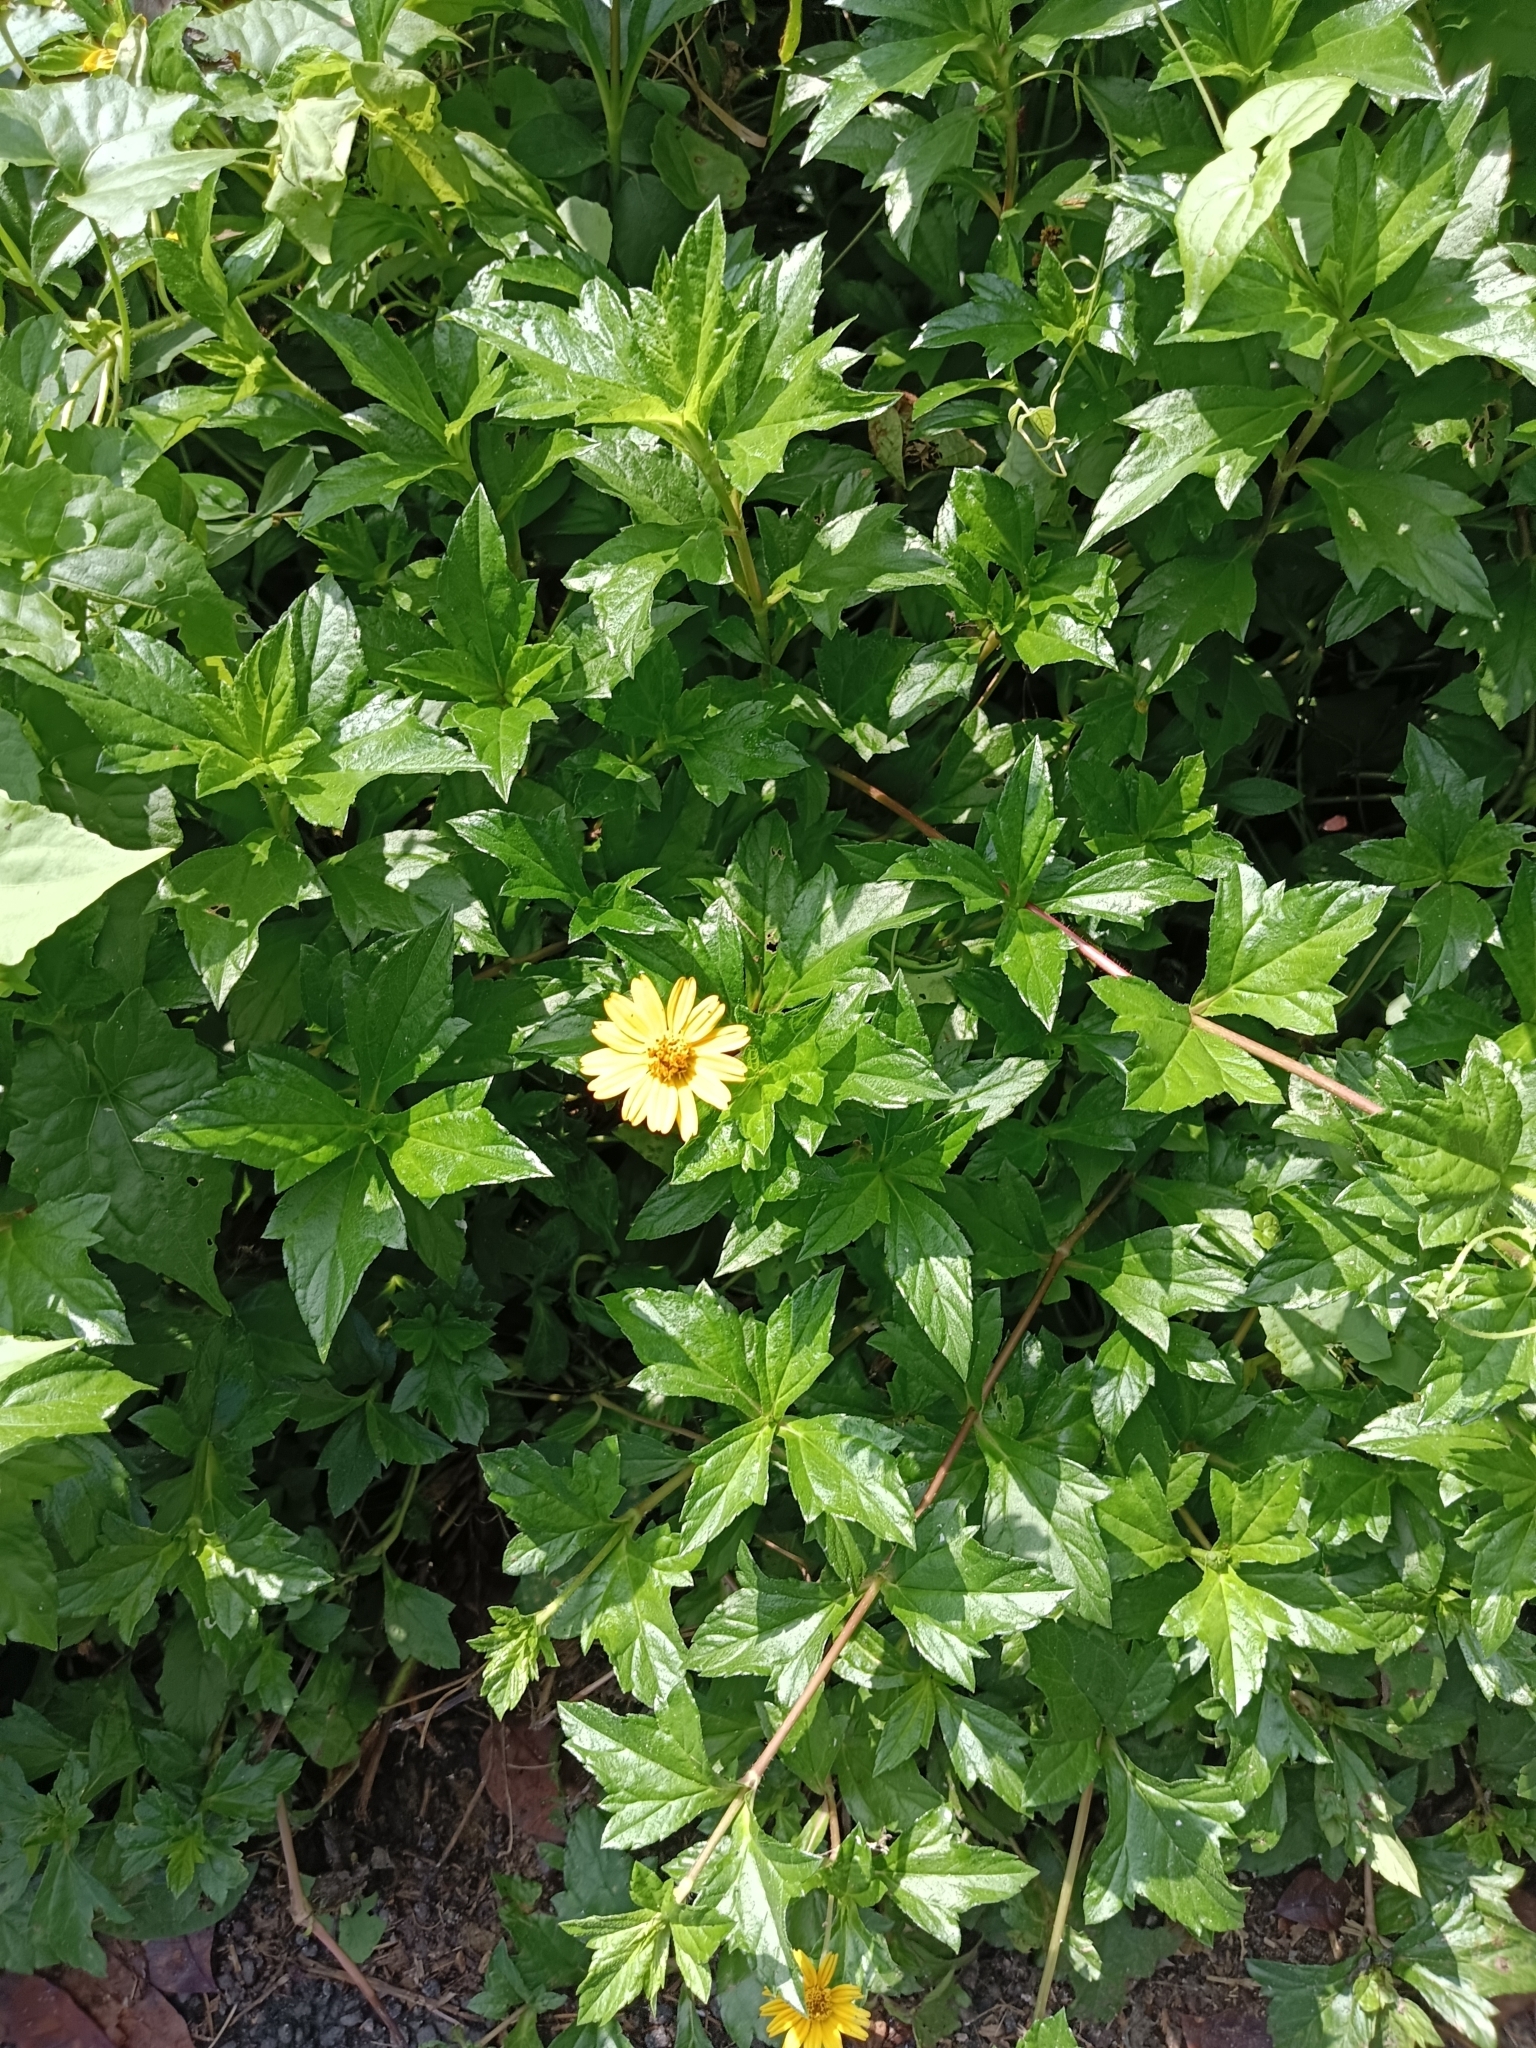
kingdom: Plantae
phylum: Tracheophyta
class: Magnoliopsida
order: Asterales
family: Asteraceae
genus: Sphagneticola
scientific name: Sphagneticola trilobata
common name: Bay biscayne creeping-oxeye
